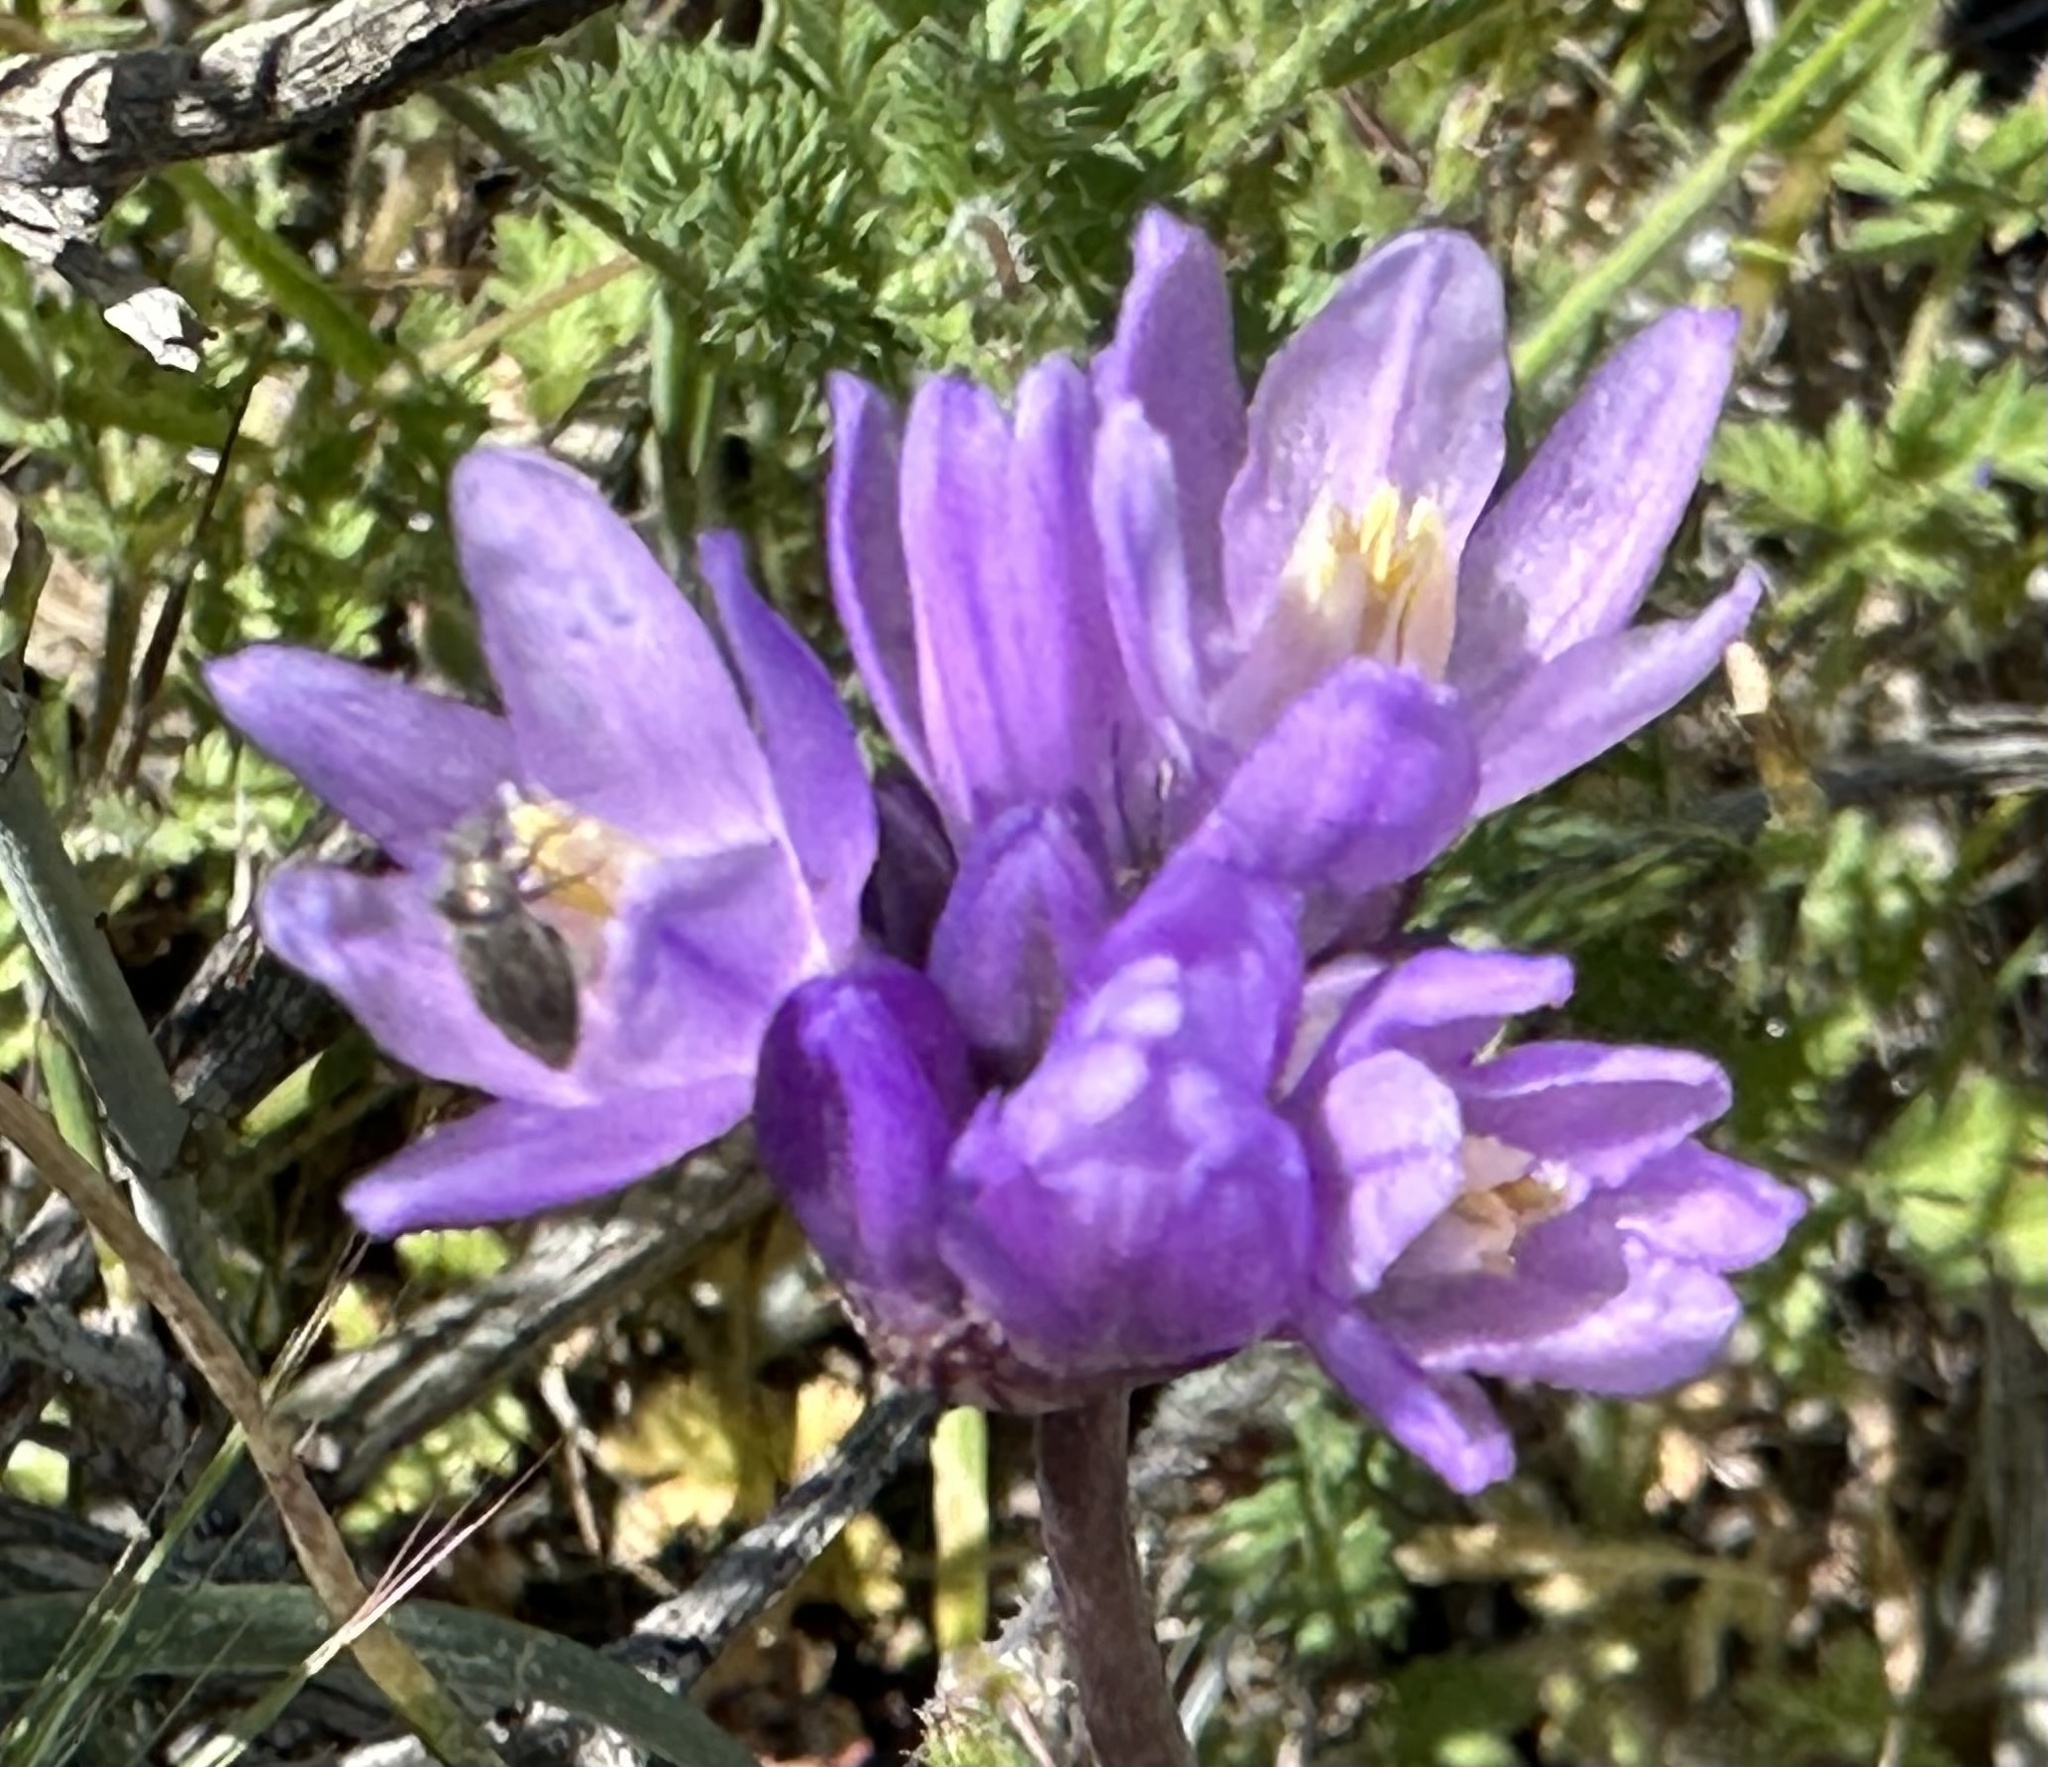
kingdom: Plantae
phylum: Tracheophyta
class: Liliopsida
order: Asparagales
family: Asparagaceae
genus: Dipterostemon
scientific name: Dipterostemon capitatus
